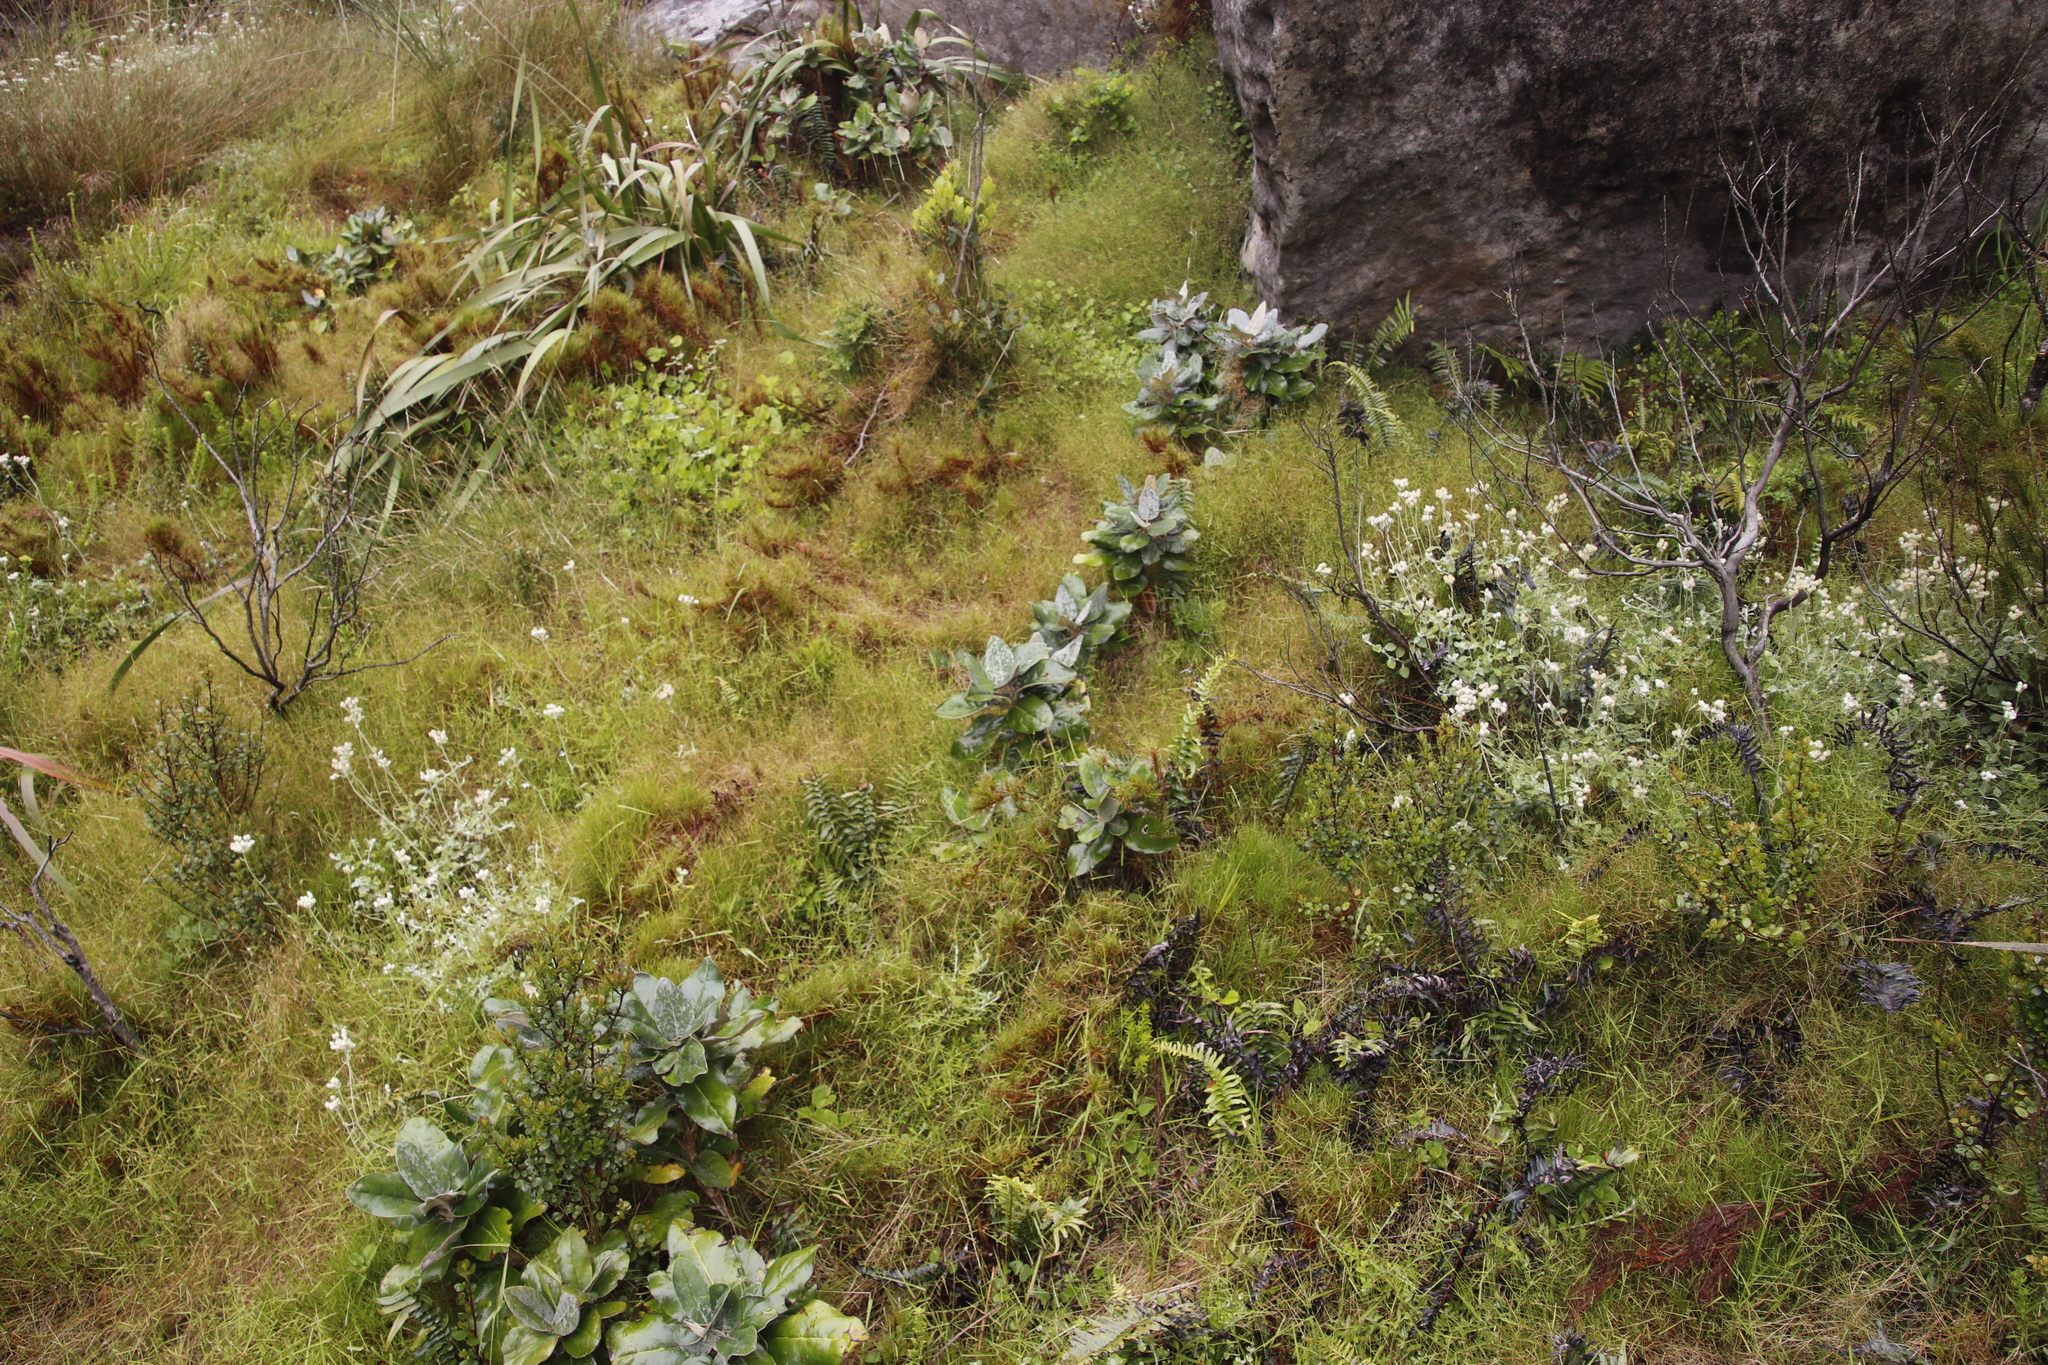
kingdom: Plantae
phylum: Tracheophyta
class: Magnoliopsida
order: Asterales
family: Asteraceae
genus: Capelio
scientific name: Capelio tabularis
